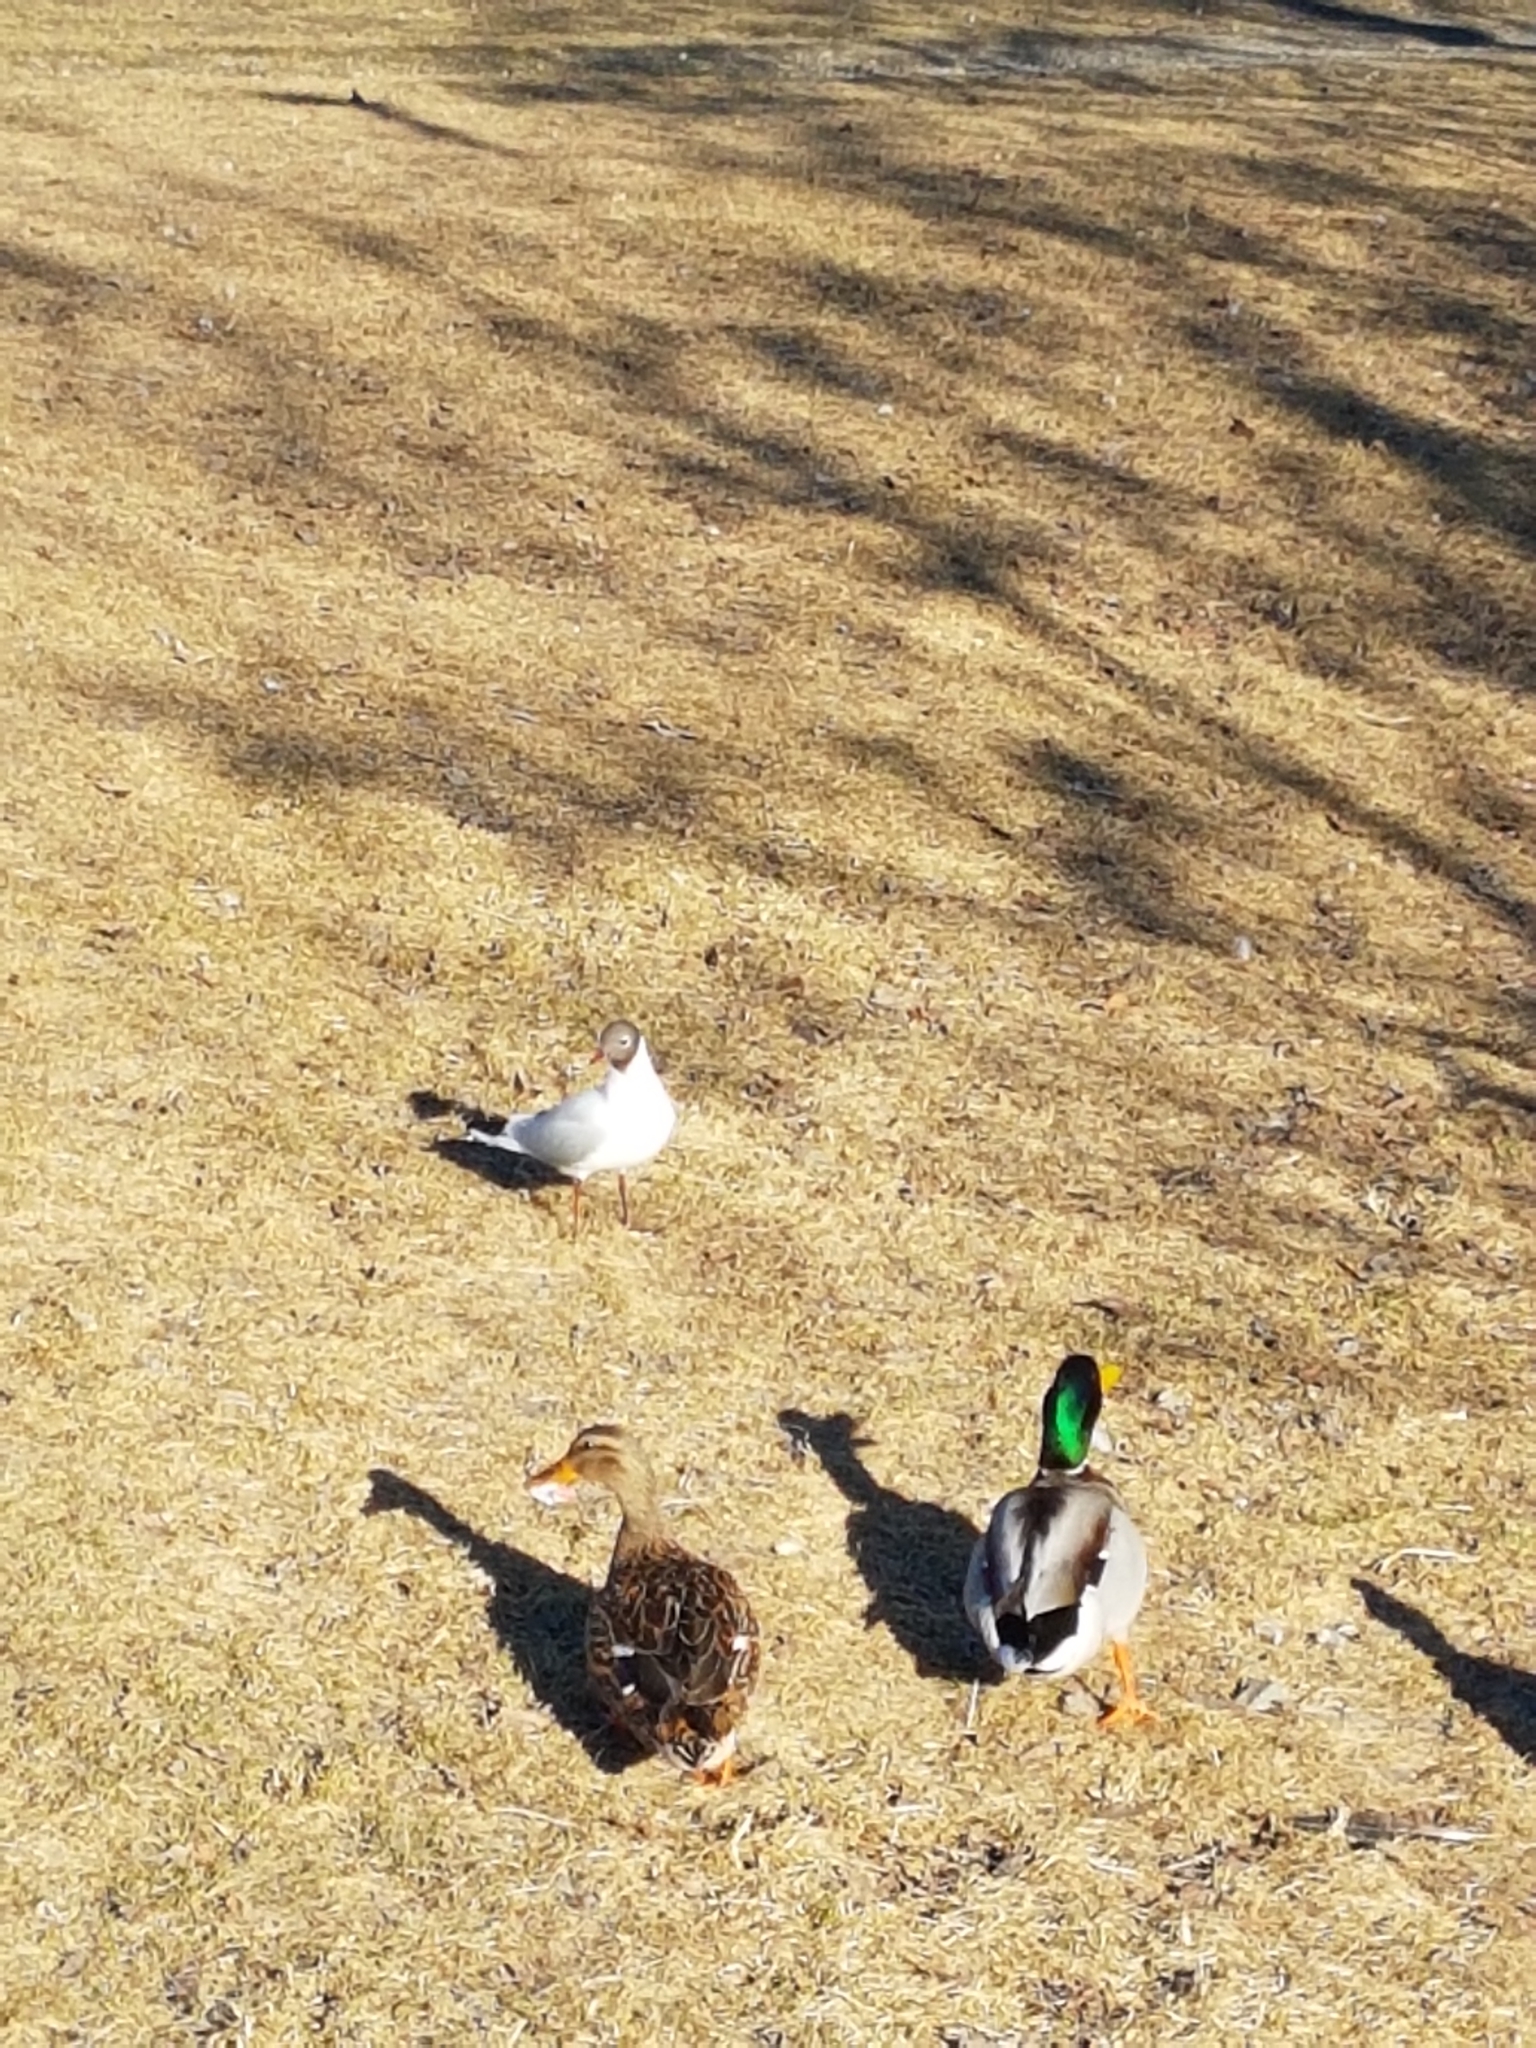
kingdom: Animalia
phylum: Chordata
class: Aves
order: Charadriiformes
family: Laridae
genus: Chroicocephalus
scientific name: Chroicocephalus ridibundus
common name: Black-headed gull
